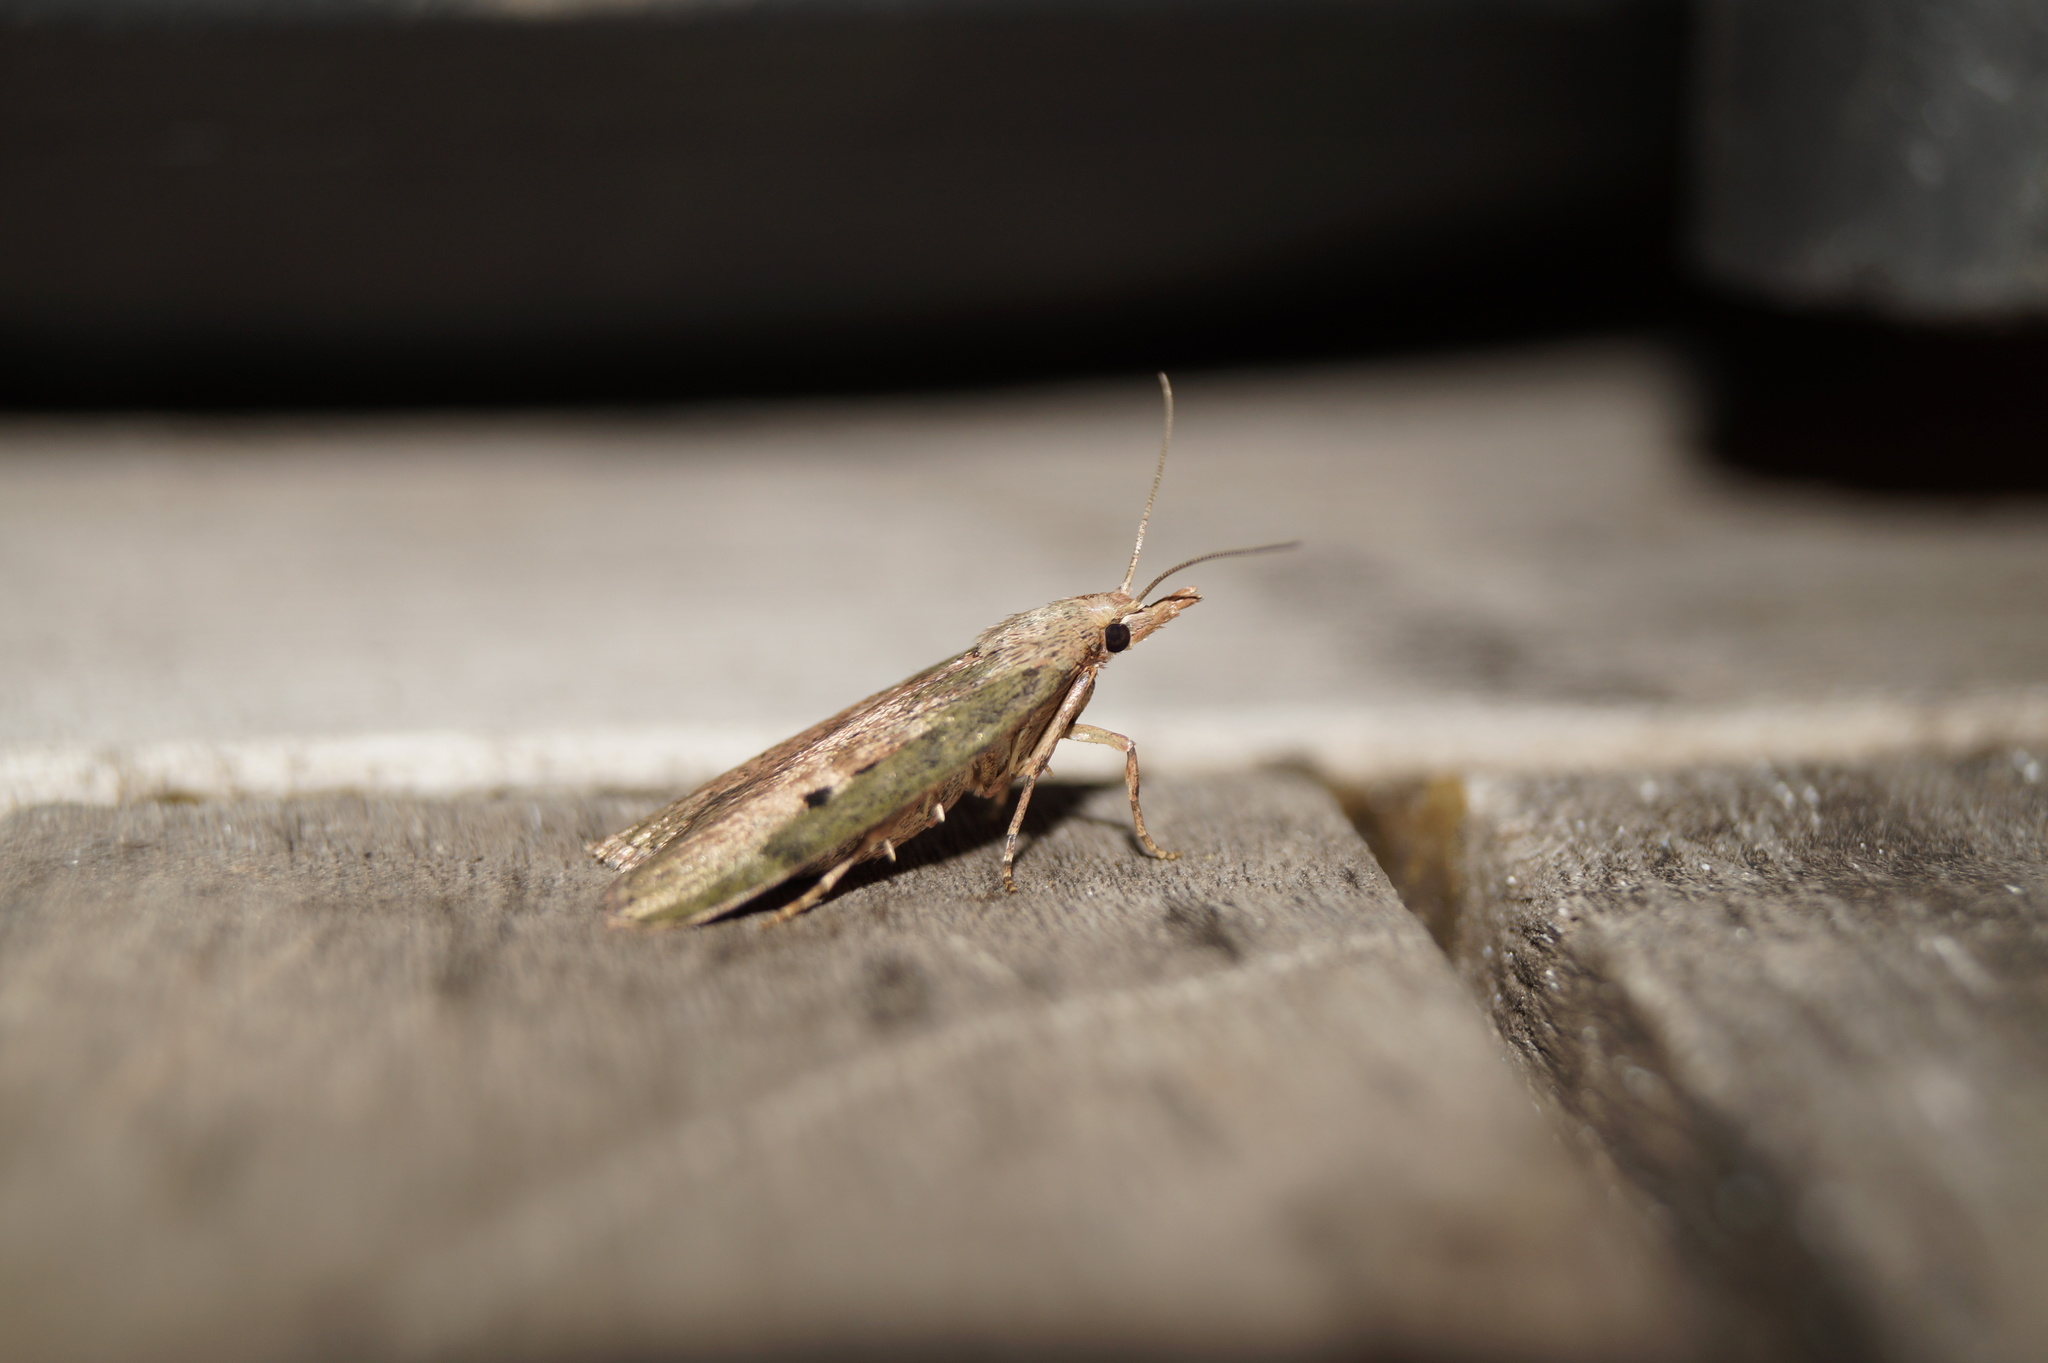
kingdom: Animalia
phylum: Arthropoda
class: Insecta
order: Lepidoptera
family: Pyralidae
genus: Aphomia
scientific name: Aphomia sociella
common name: Bee moth
